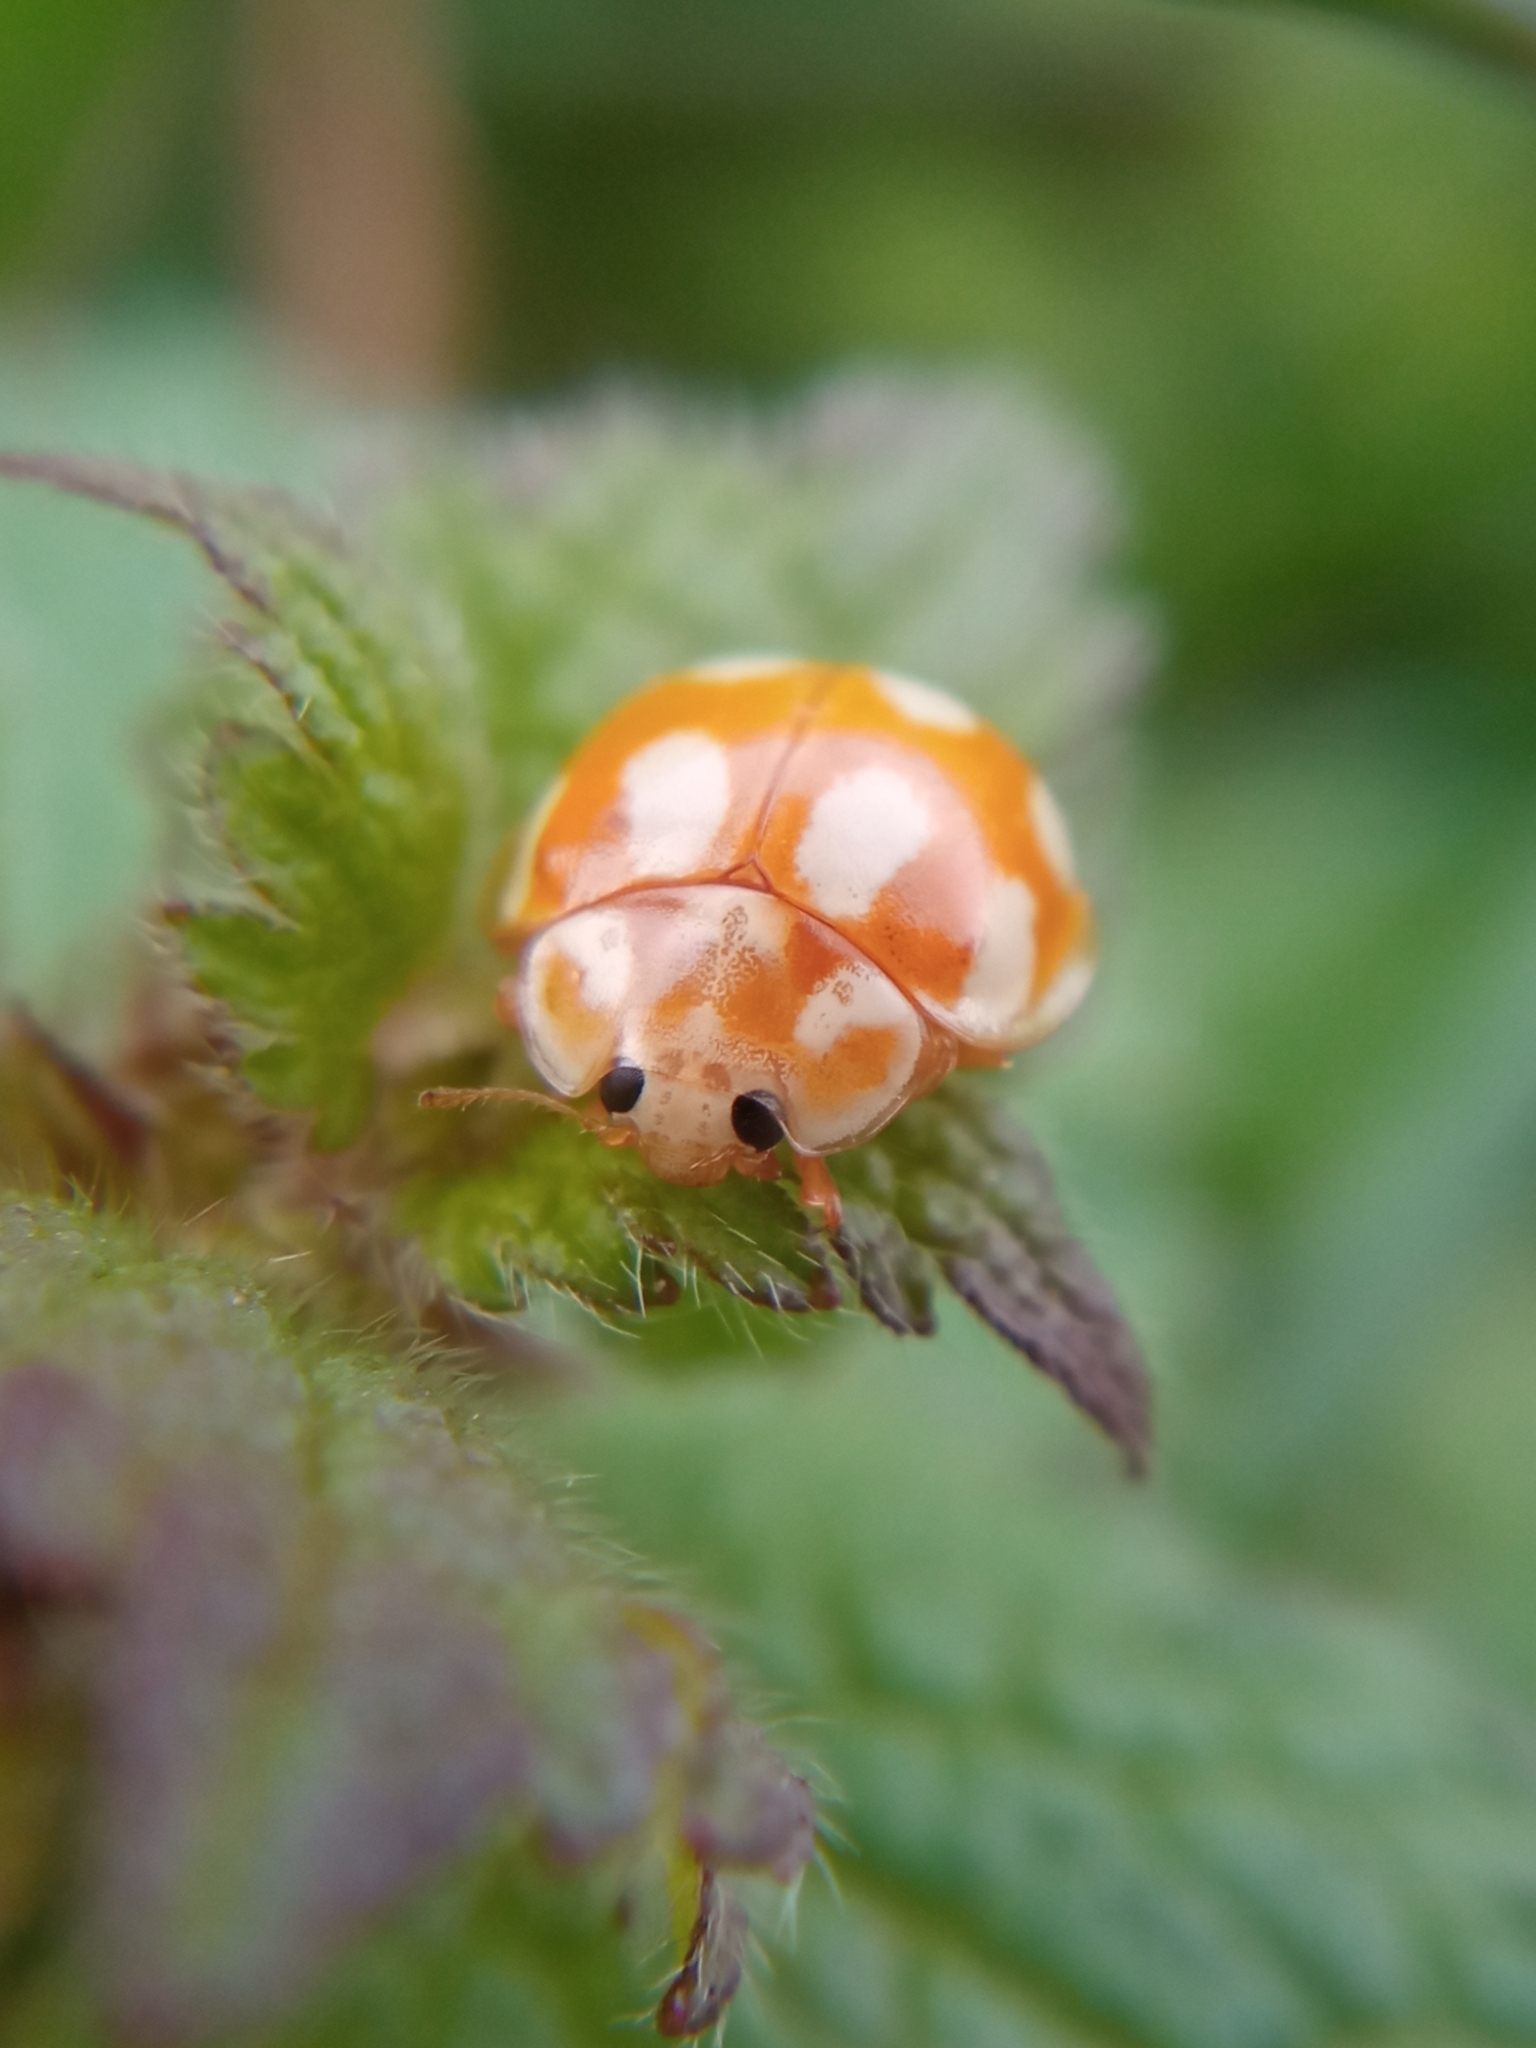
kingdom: Animalia
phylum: Arthropoda
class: Insecta
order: Coleoptera
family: Coccinellidae
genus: Calvia
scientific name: Calvia decemguttata
